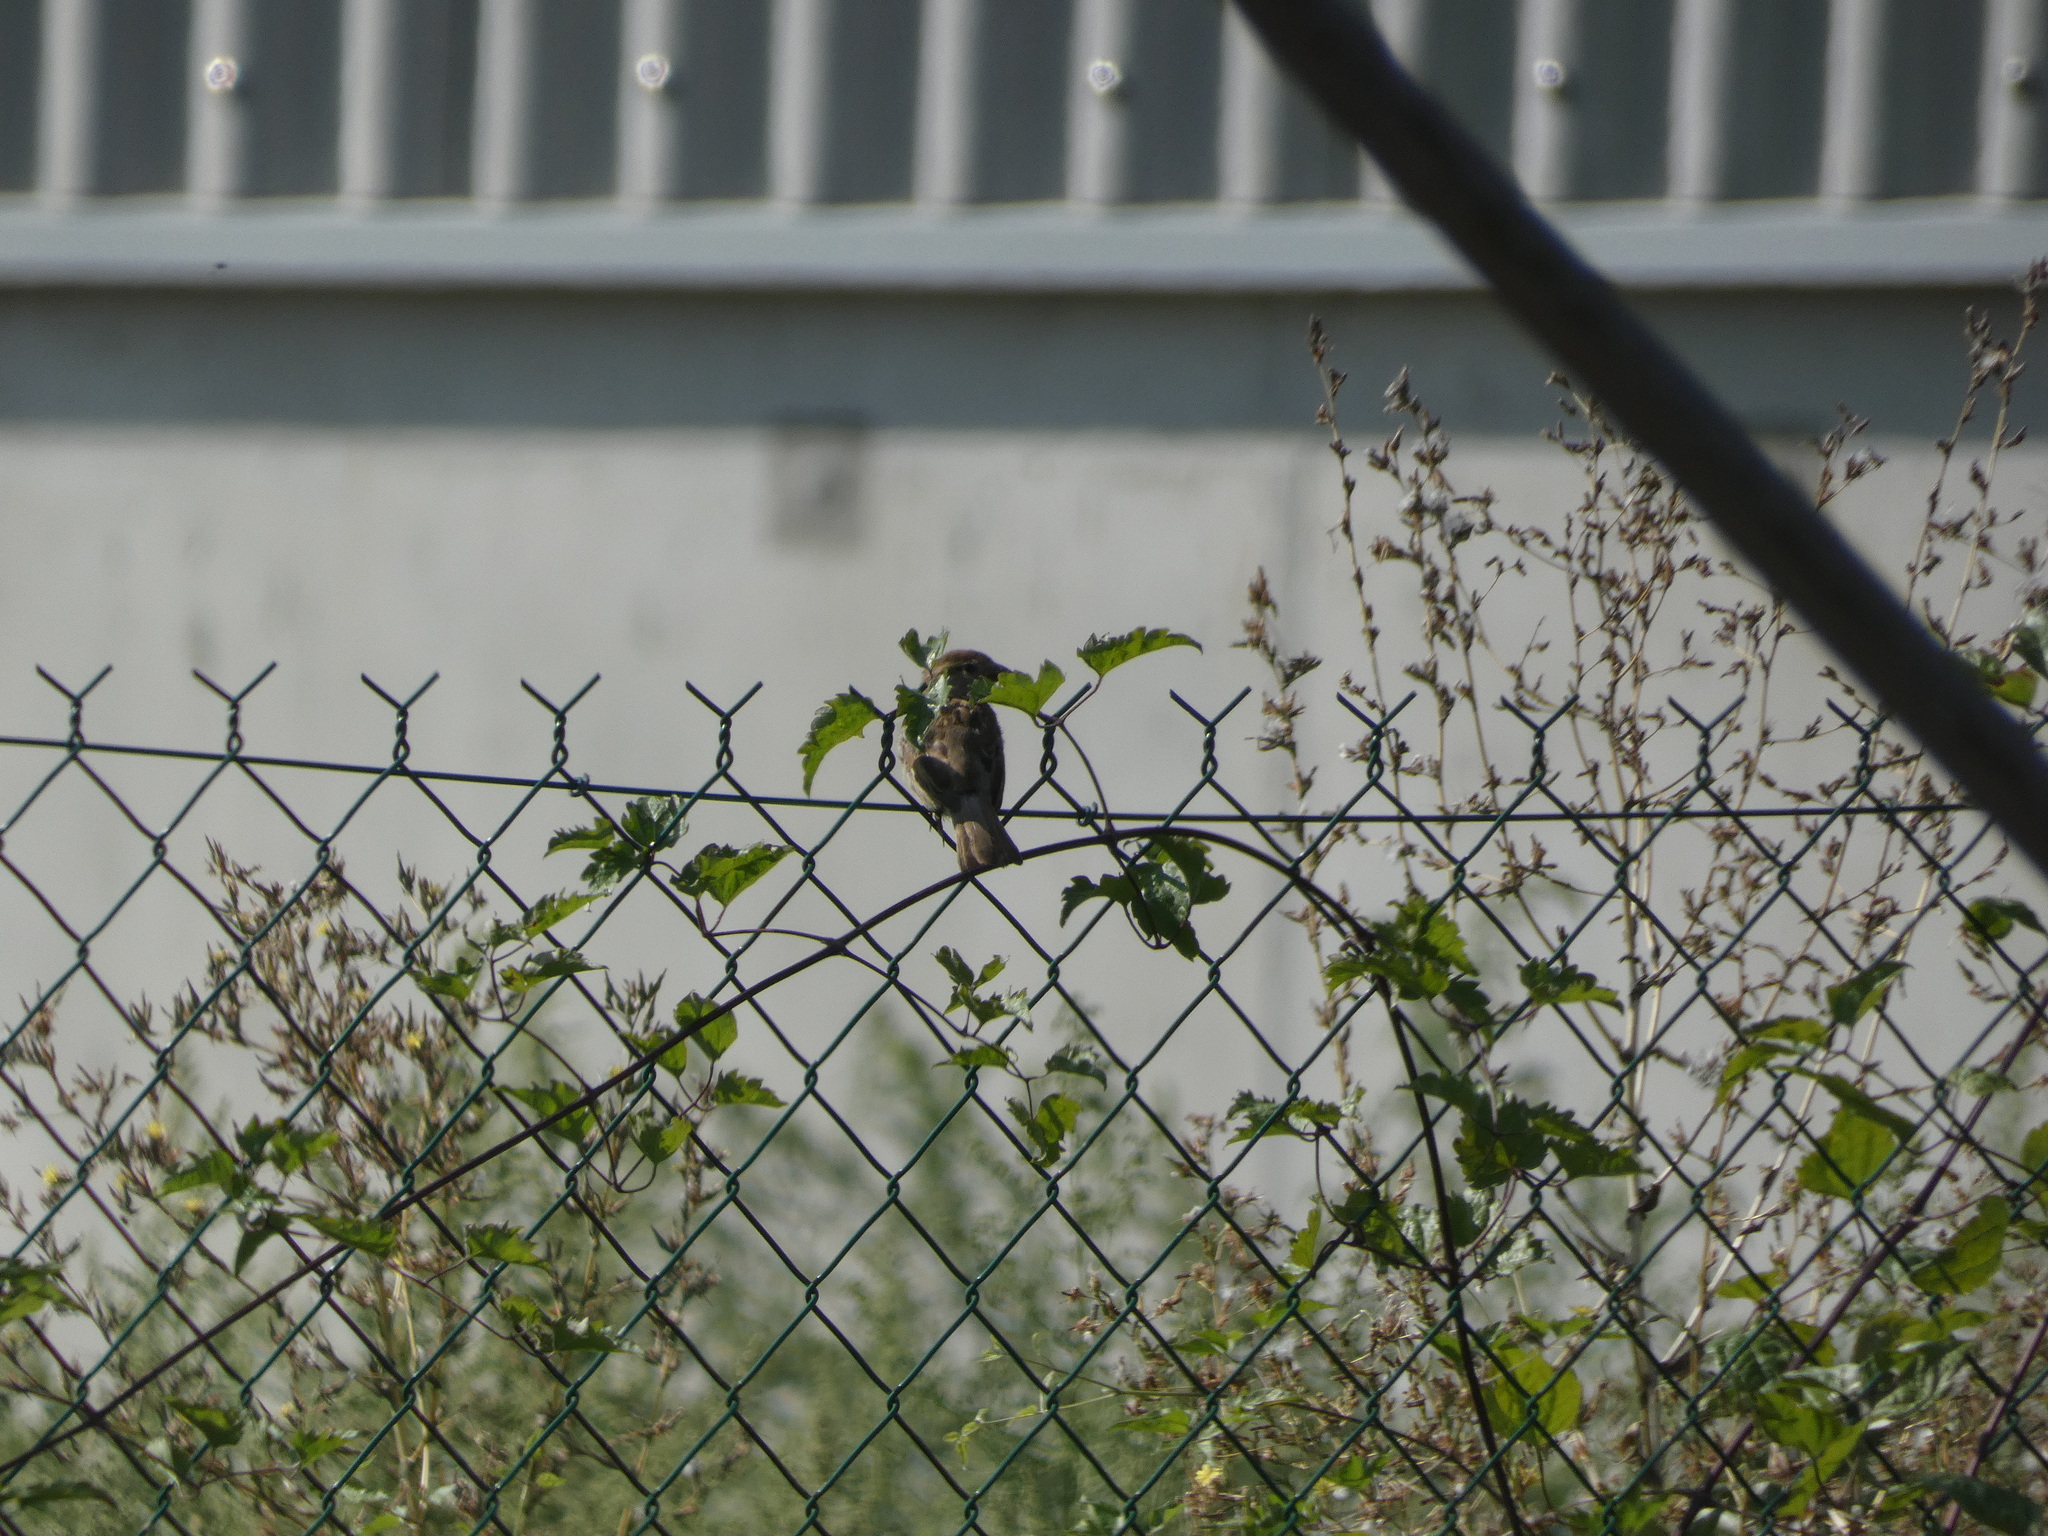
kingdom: Animalia
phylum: Chordata
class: Aves
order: Passeriformes
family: Passeridae
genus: Passer
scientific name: Passer domesticus
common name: House sparrow
